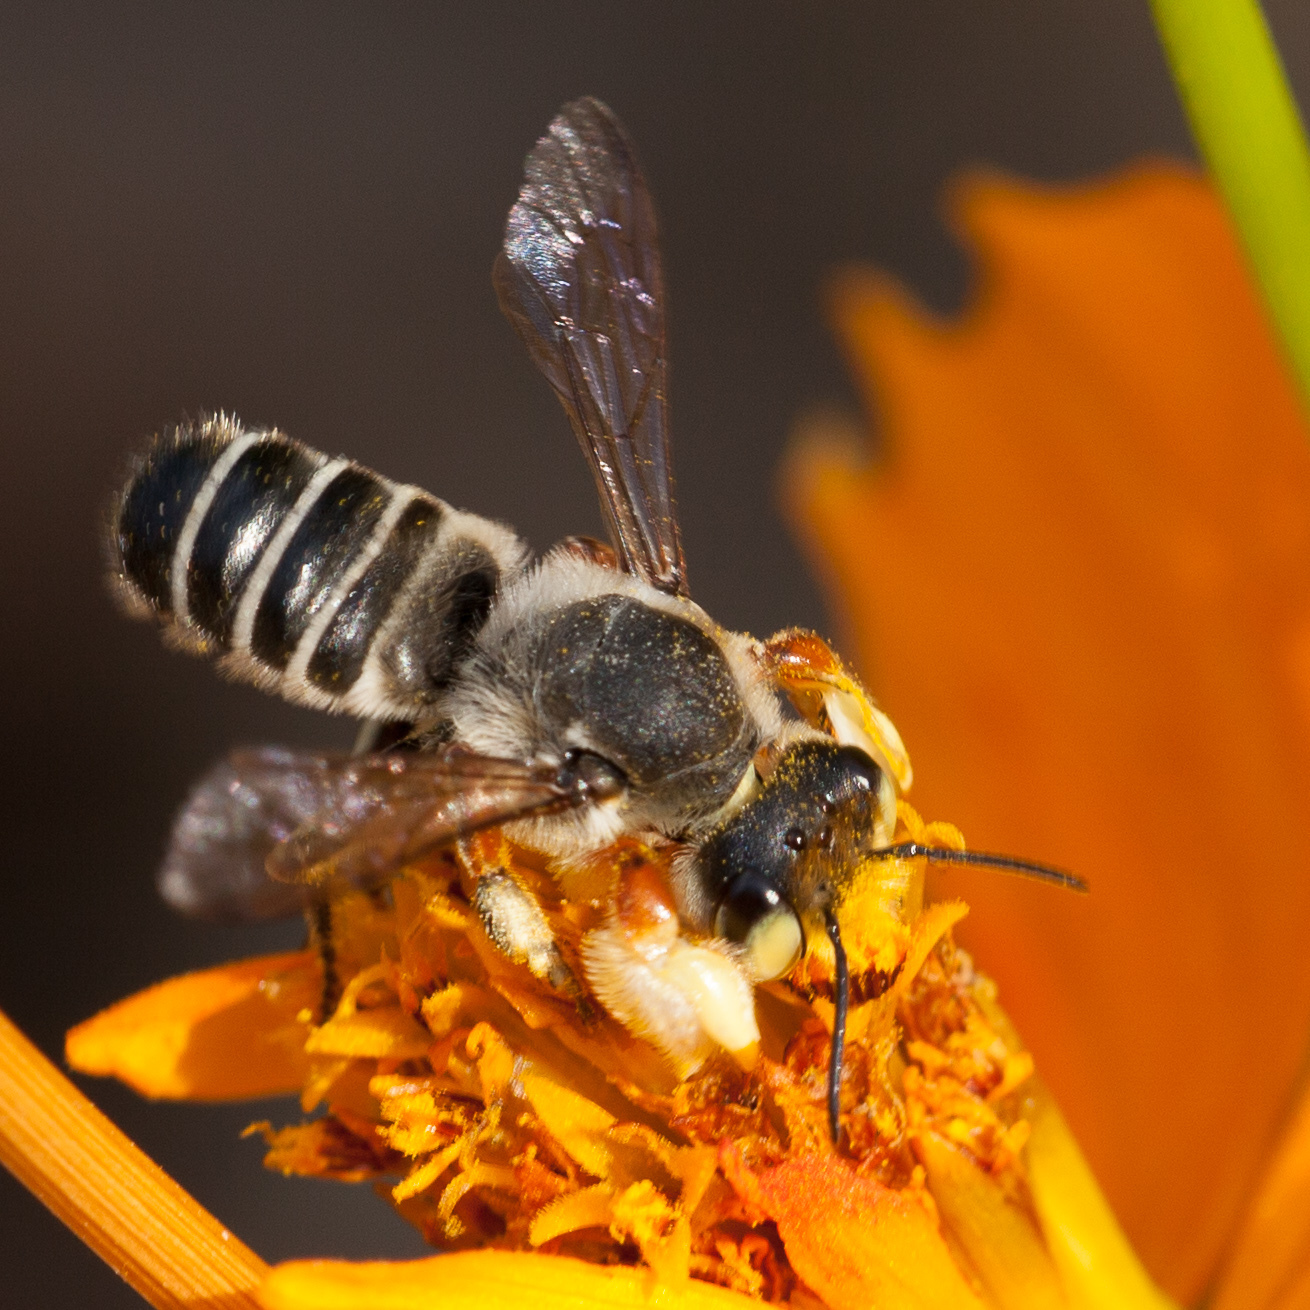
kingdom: Animalia
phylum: Arthropoda
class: Insecta
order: Hymenoptera
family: Megachilidae
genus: Megachile
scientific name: Megachile policaris
